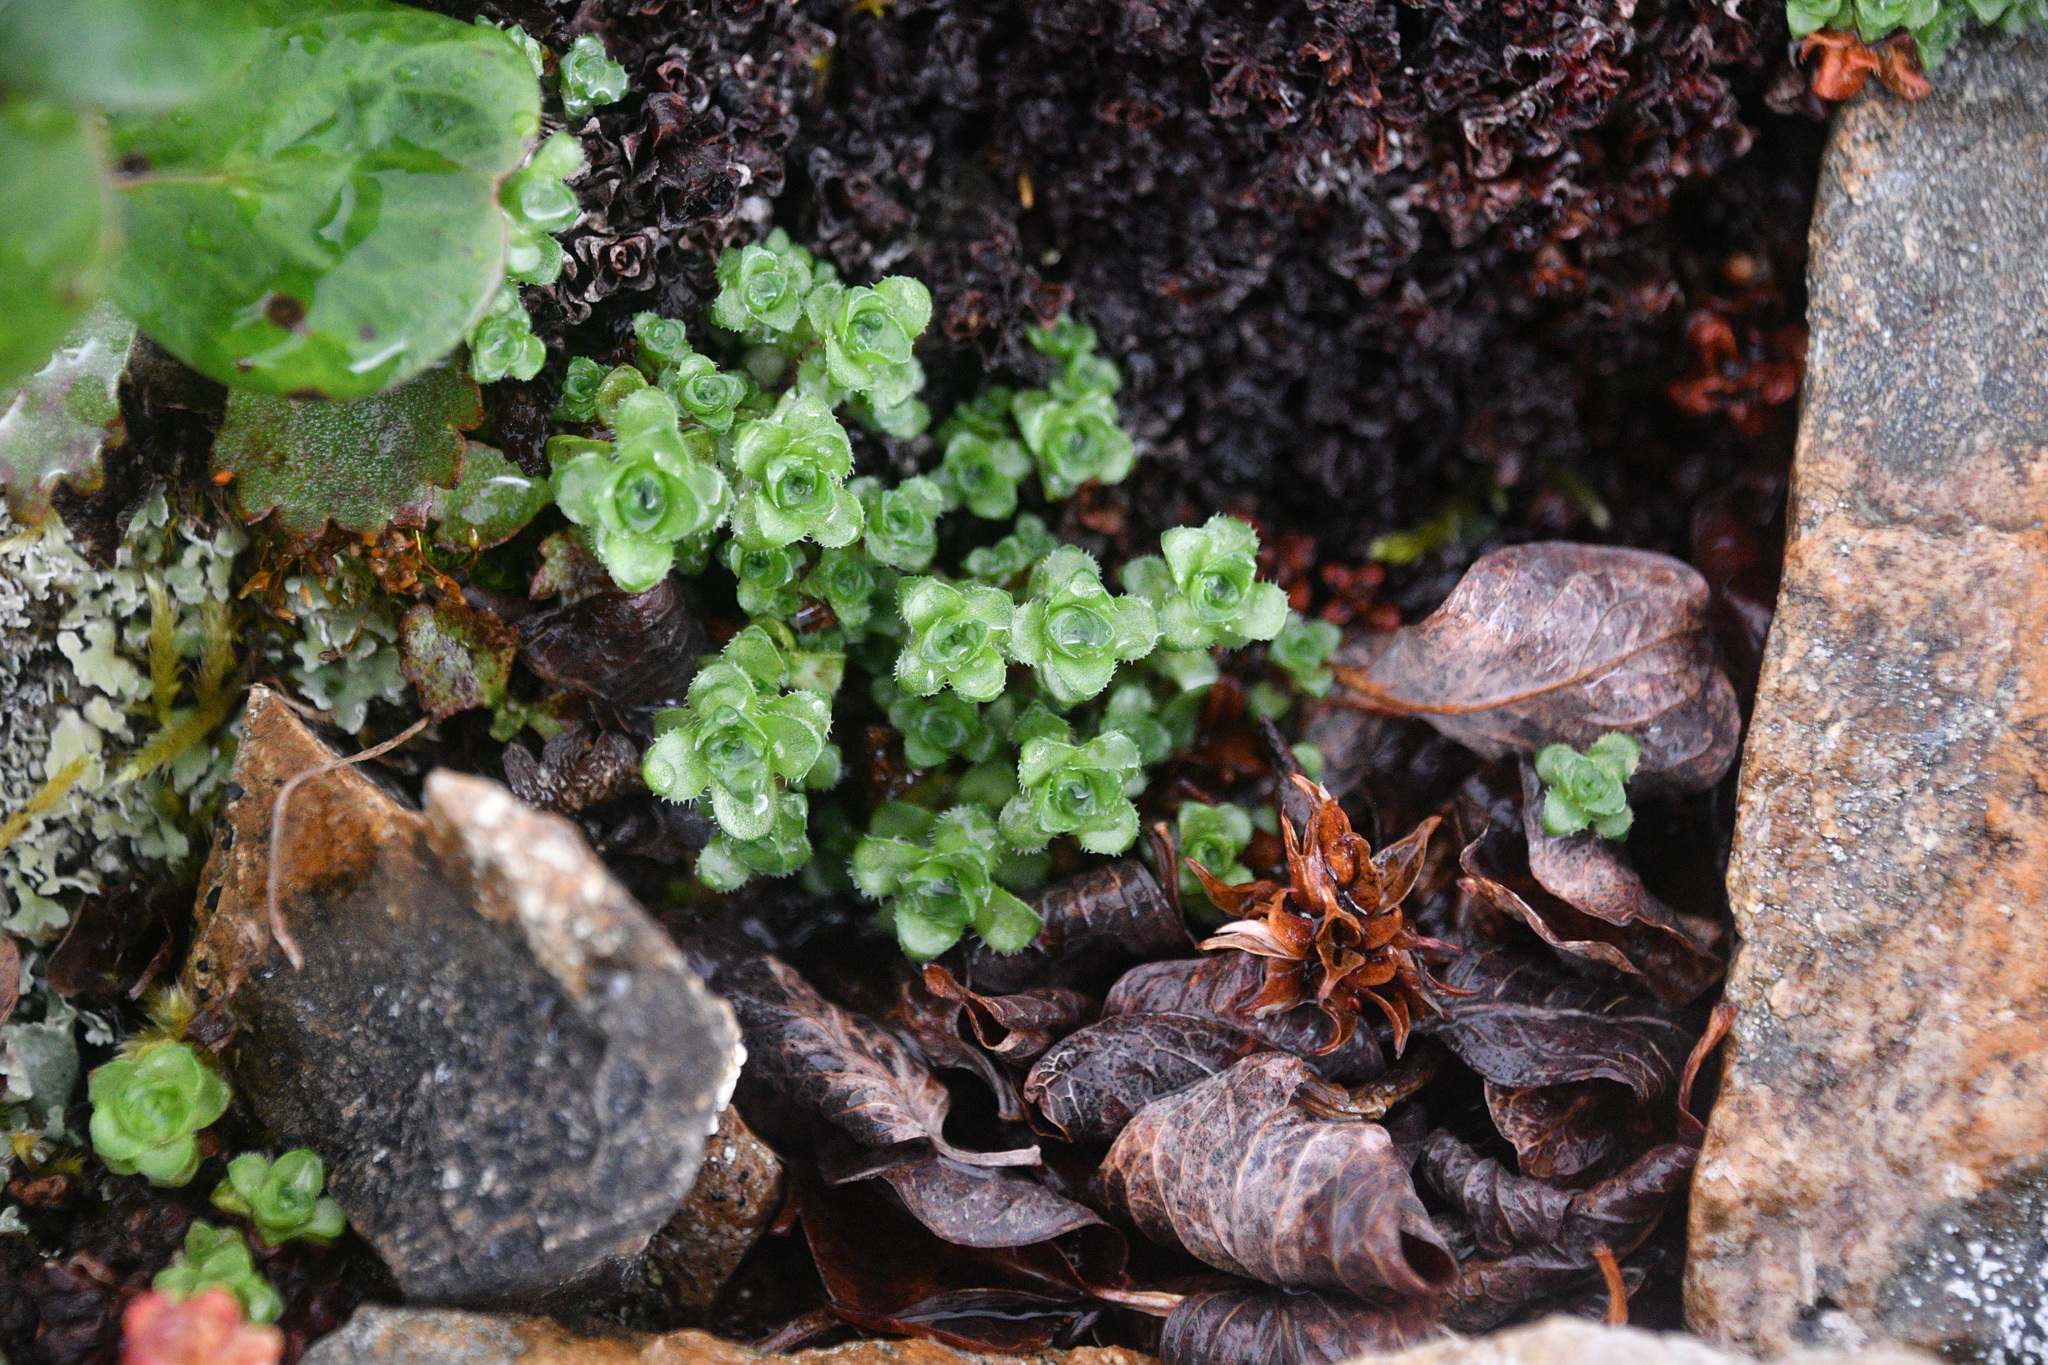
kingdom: Plantae
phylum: Tracheophyta
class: Magnoliopsida
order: Saxifragales
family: Saxifragaceae
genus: Saxifraga
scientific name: Saxifraga oppositifolia
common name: Purple saxifrage
